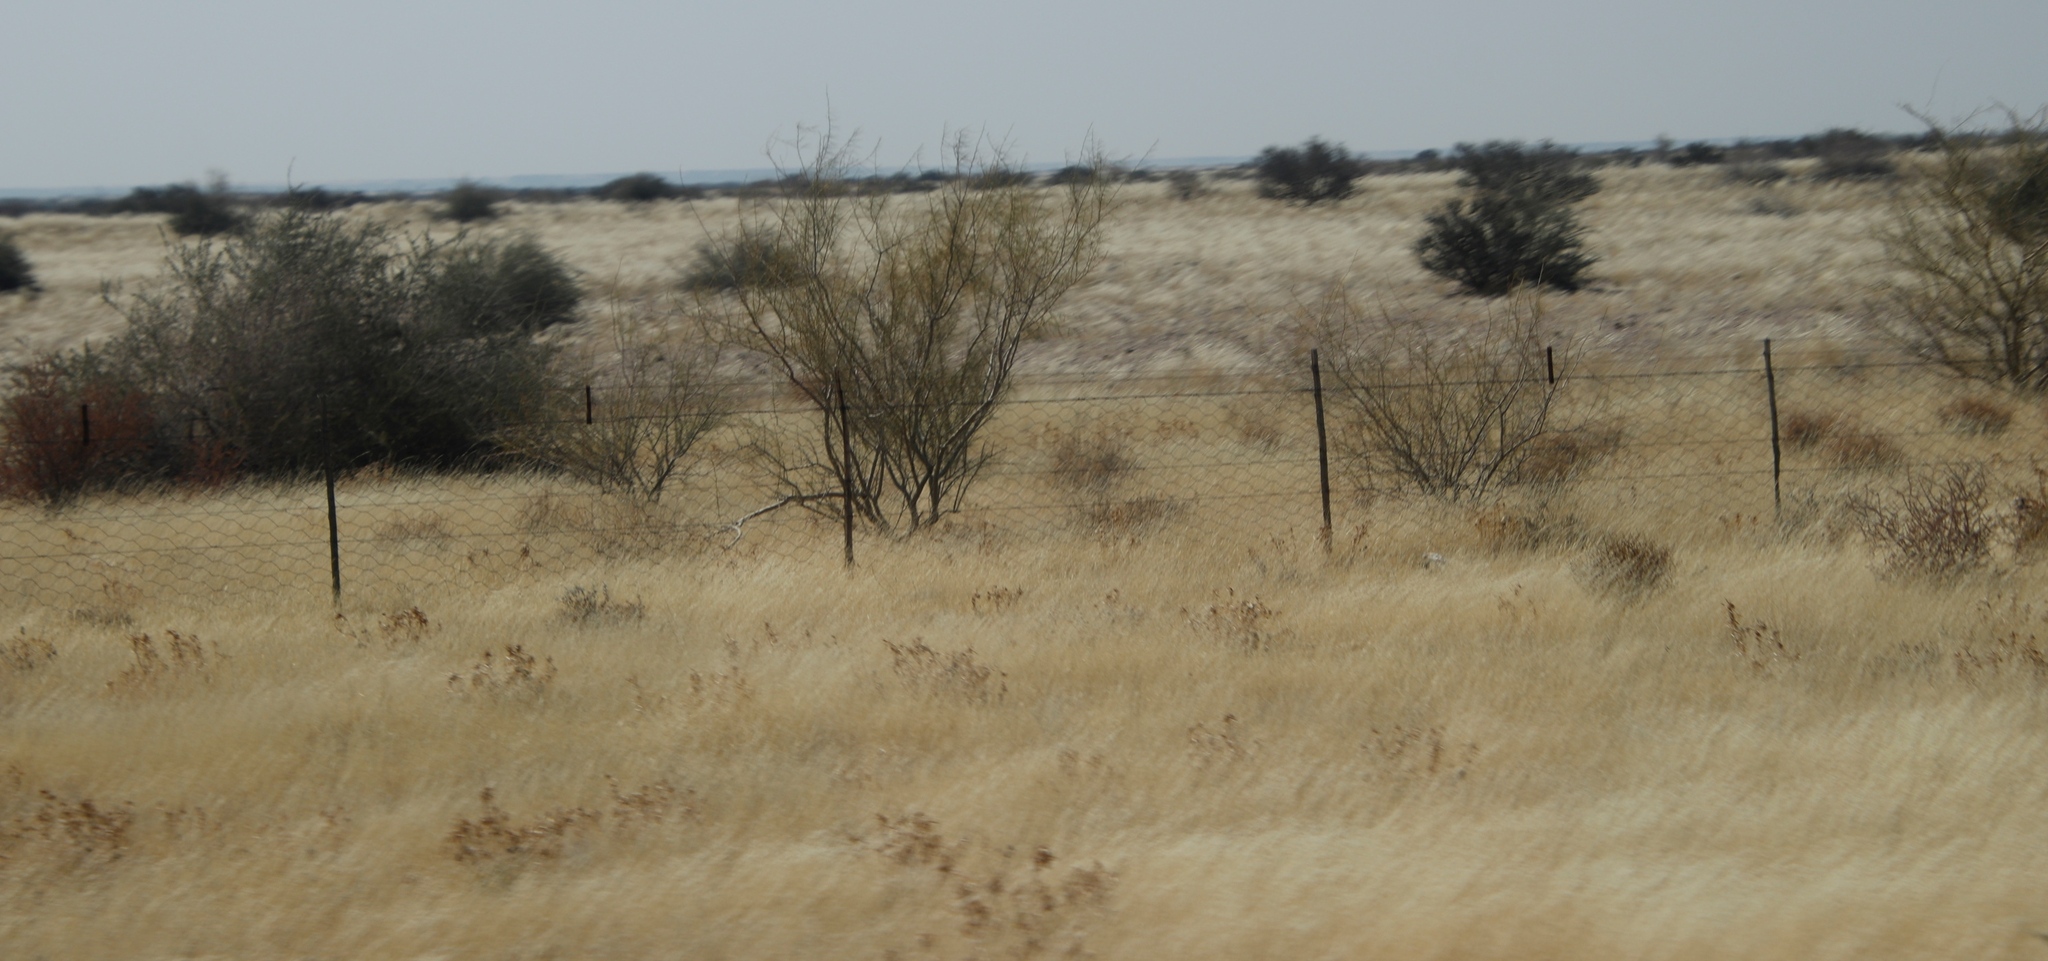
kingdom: Plantae
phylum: Tracheophyta
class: Magnoliopsida
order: Fabales
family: Fabaceae
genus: Parkinsonia
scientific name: Parkinsonia africana
